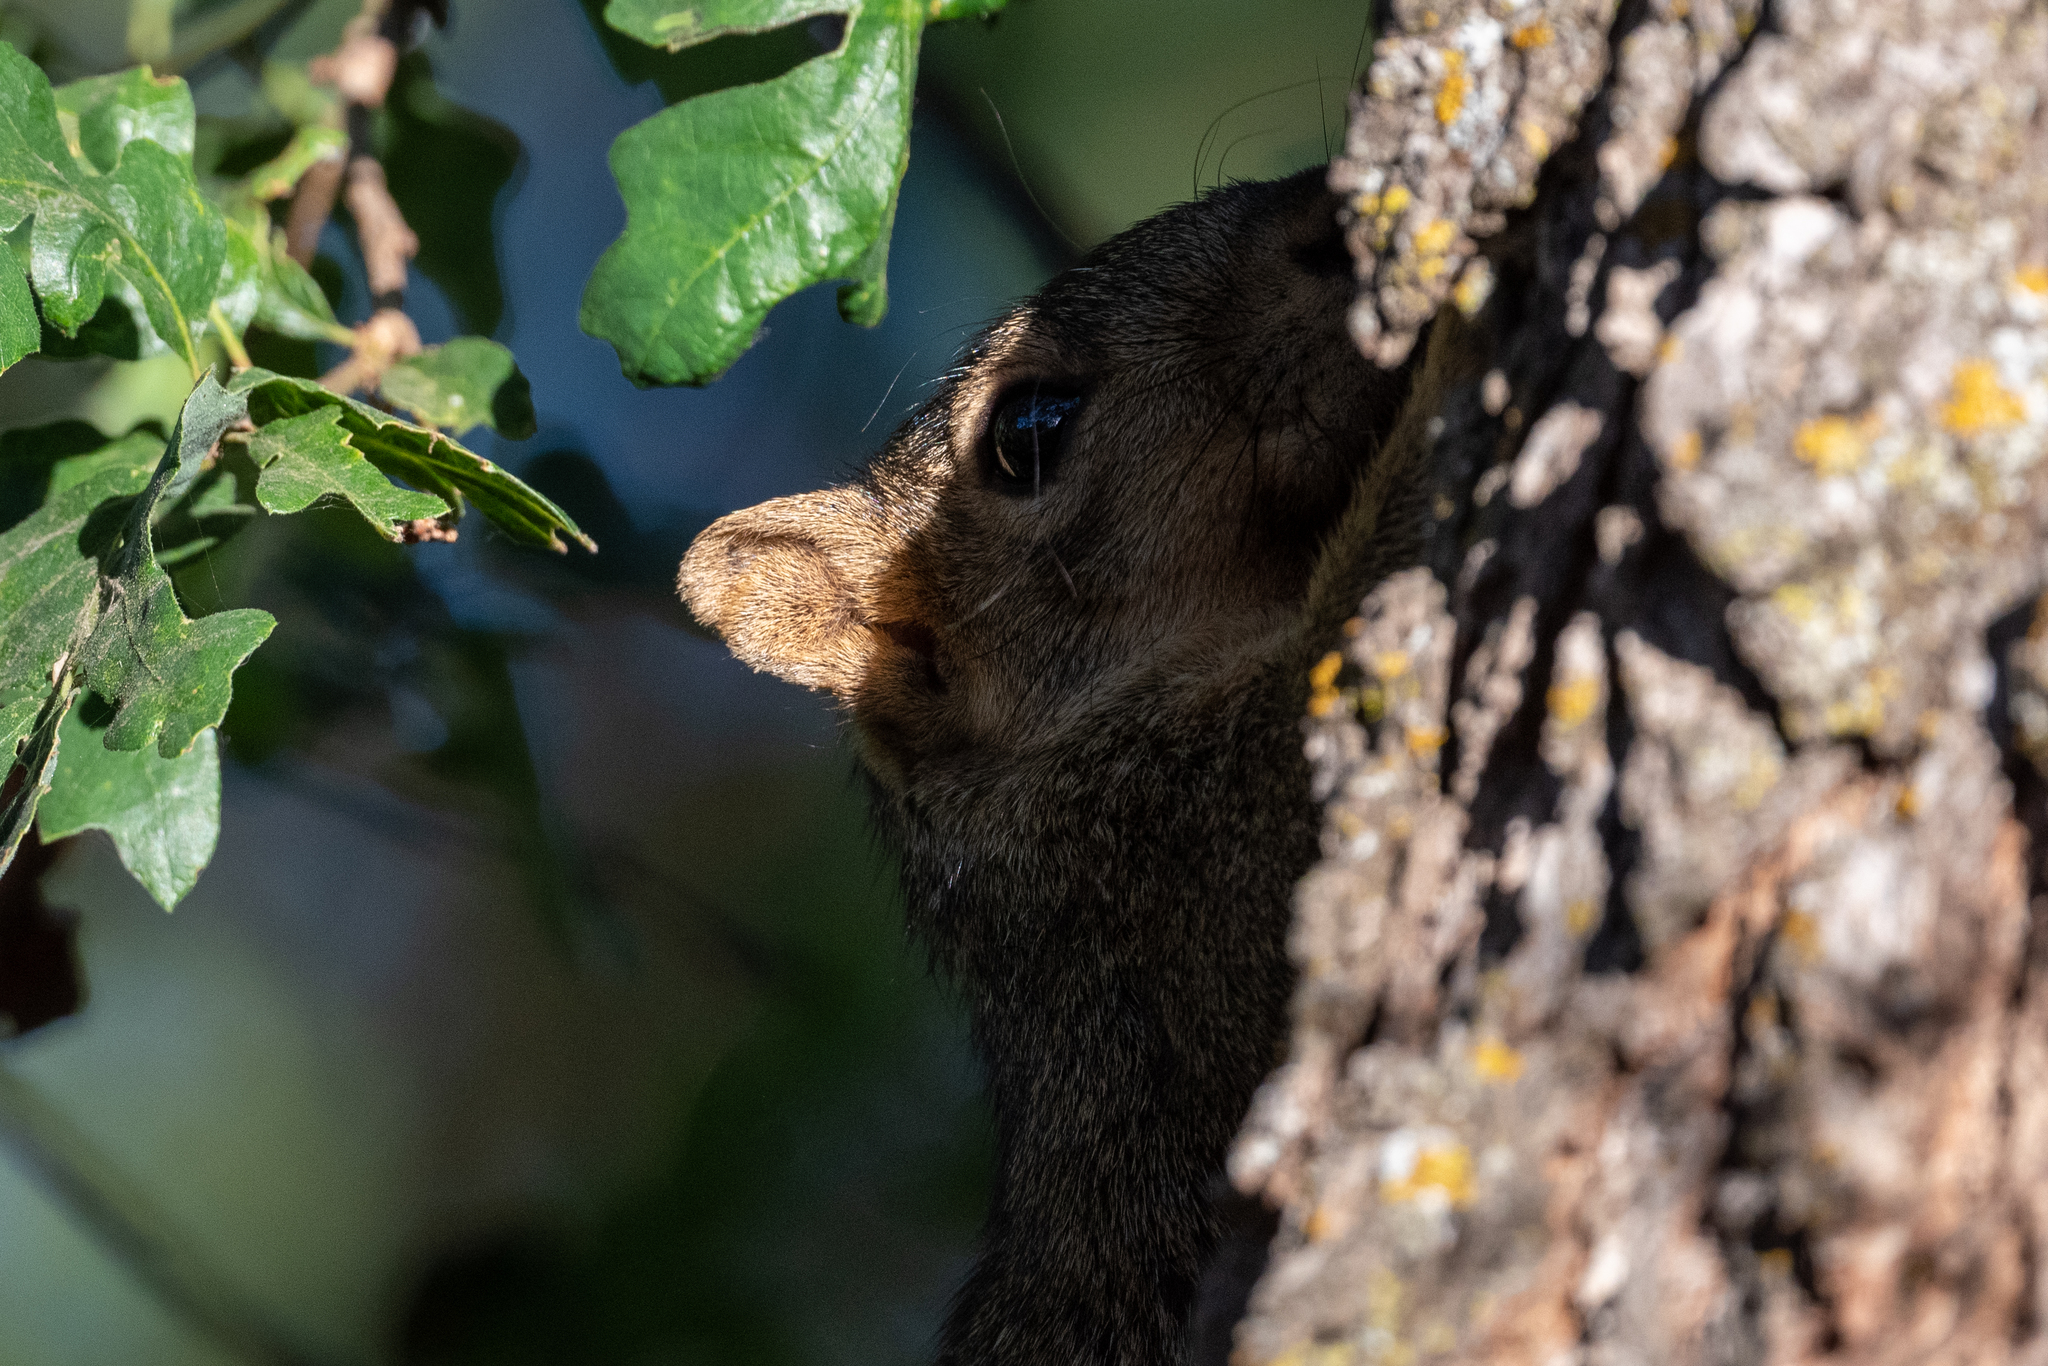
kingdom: Animalia
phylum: Chordata
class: Mammalia
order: Rodentia
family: Sciuridae
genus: Sciurus
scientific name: Sciurus niger
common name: Fox squirrel
